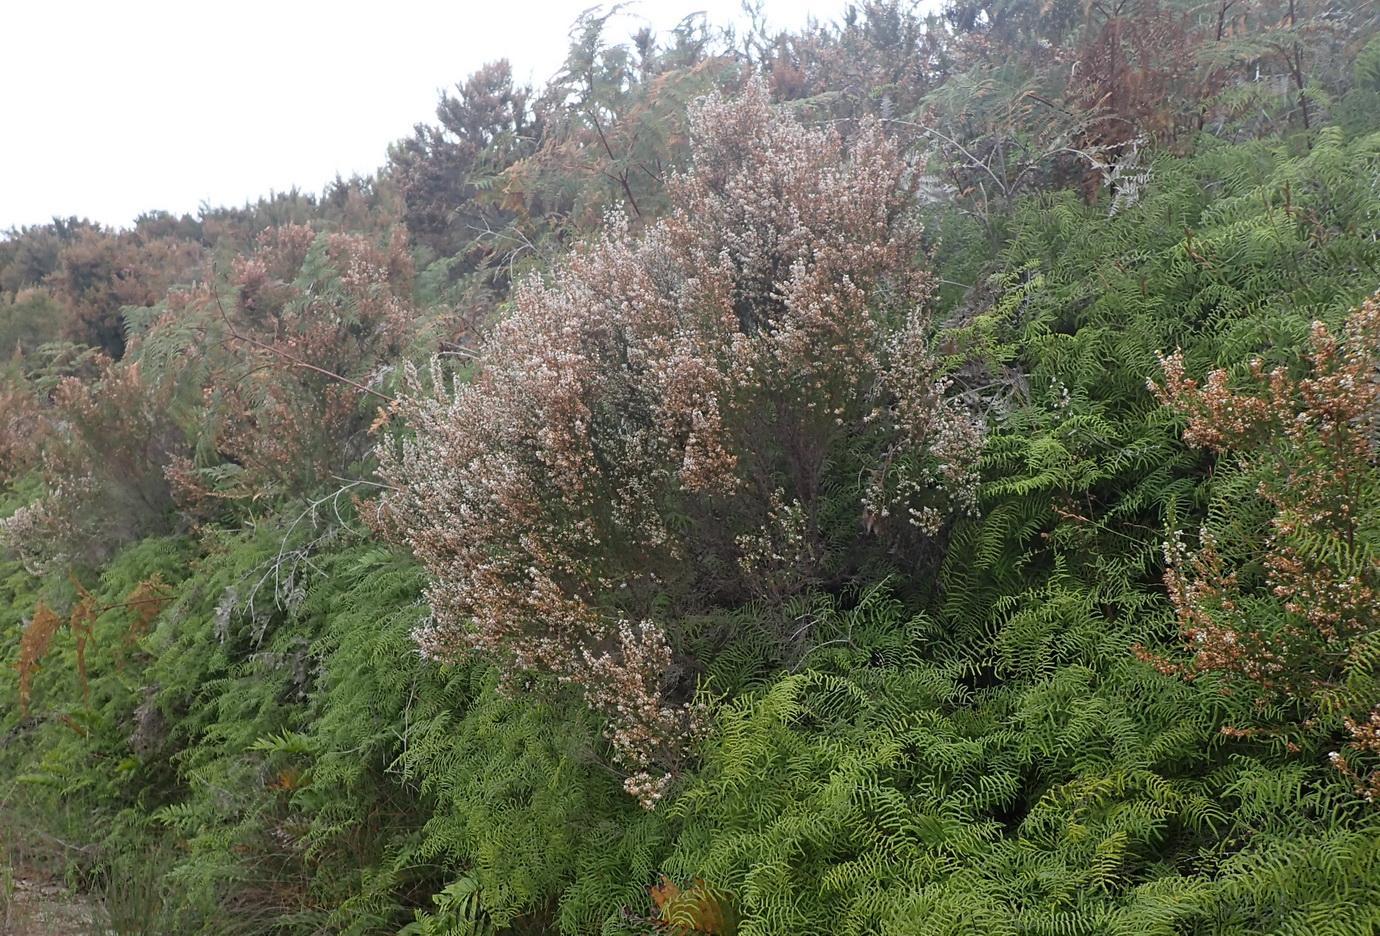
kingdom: Plantae
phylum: Tracheophyta
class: Magnoliopsida
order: Ericales
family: Ericaceae
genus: Erica
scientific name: Erica fuscescens
